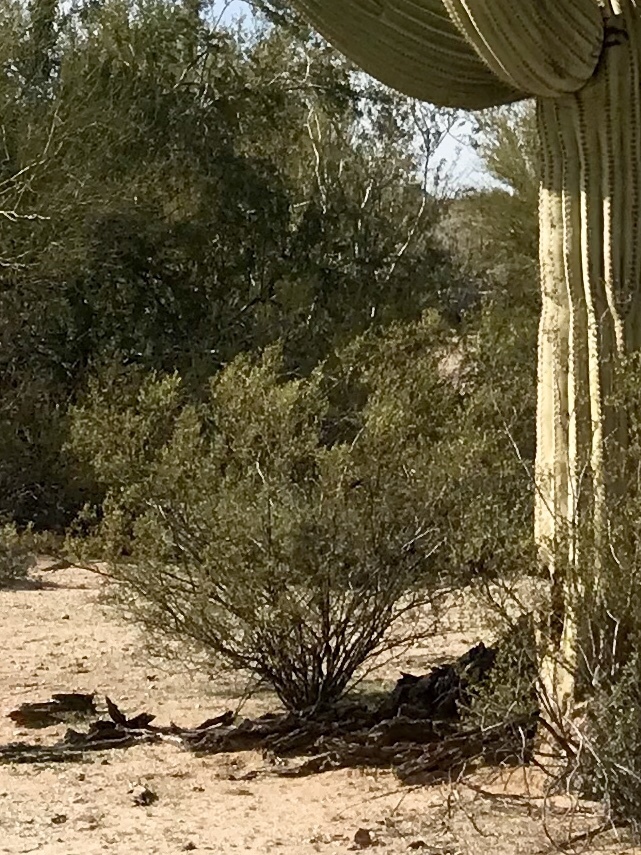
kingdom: Plantae
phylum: Tracheophyta
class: Magnoliopsida
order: Zygophyllales
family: Zygophyllaceae
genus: Larrea
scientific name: Larrea tridentata
